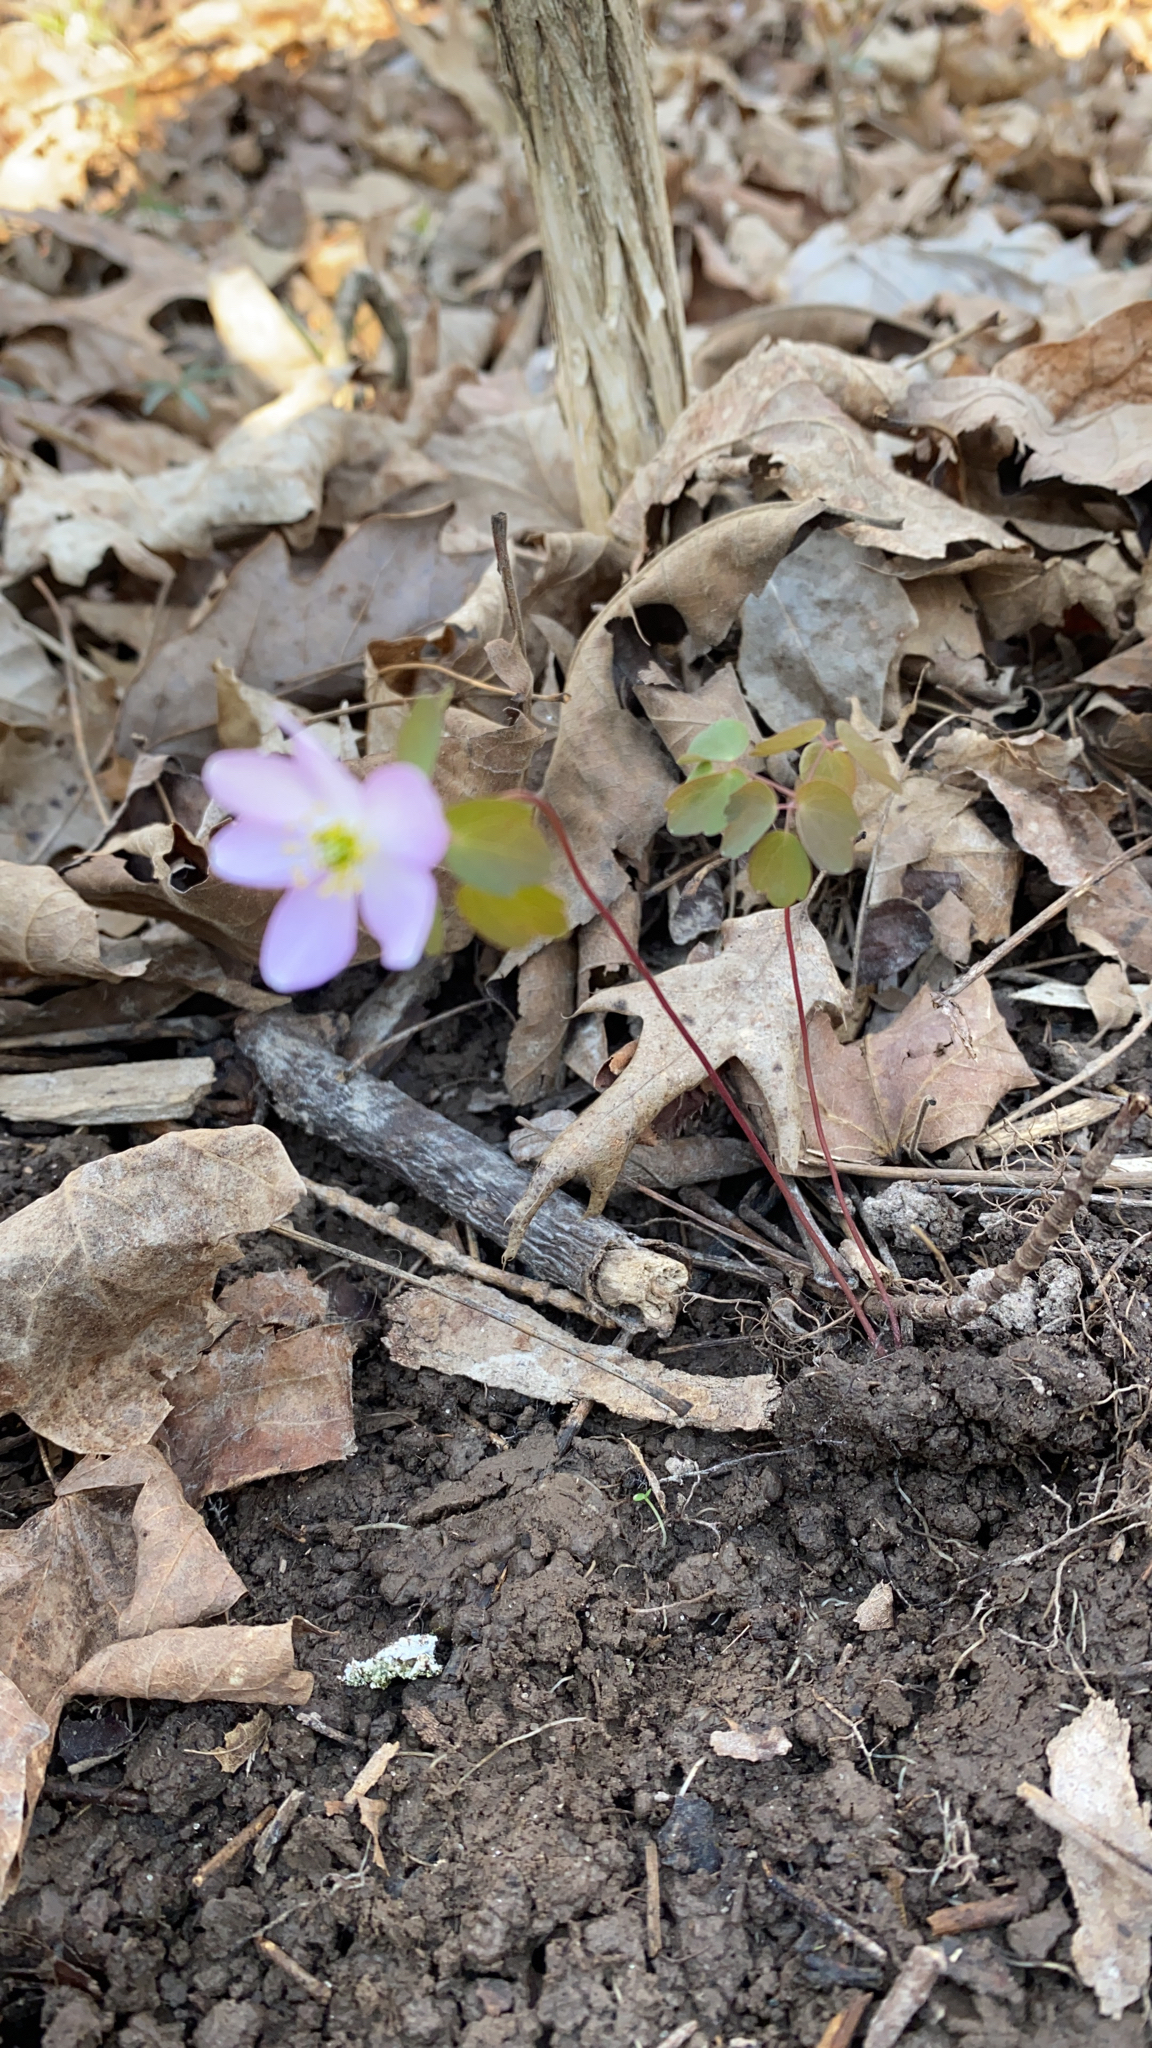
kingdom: Plantae
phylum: Tracheophyta
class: Magnoliopsida
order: Ranunculales
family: Ranunculaceae
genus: Thalictrum
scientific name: Thalictrum thalictroides
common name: Rue-anemone
